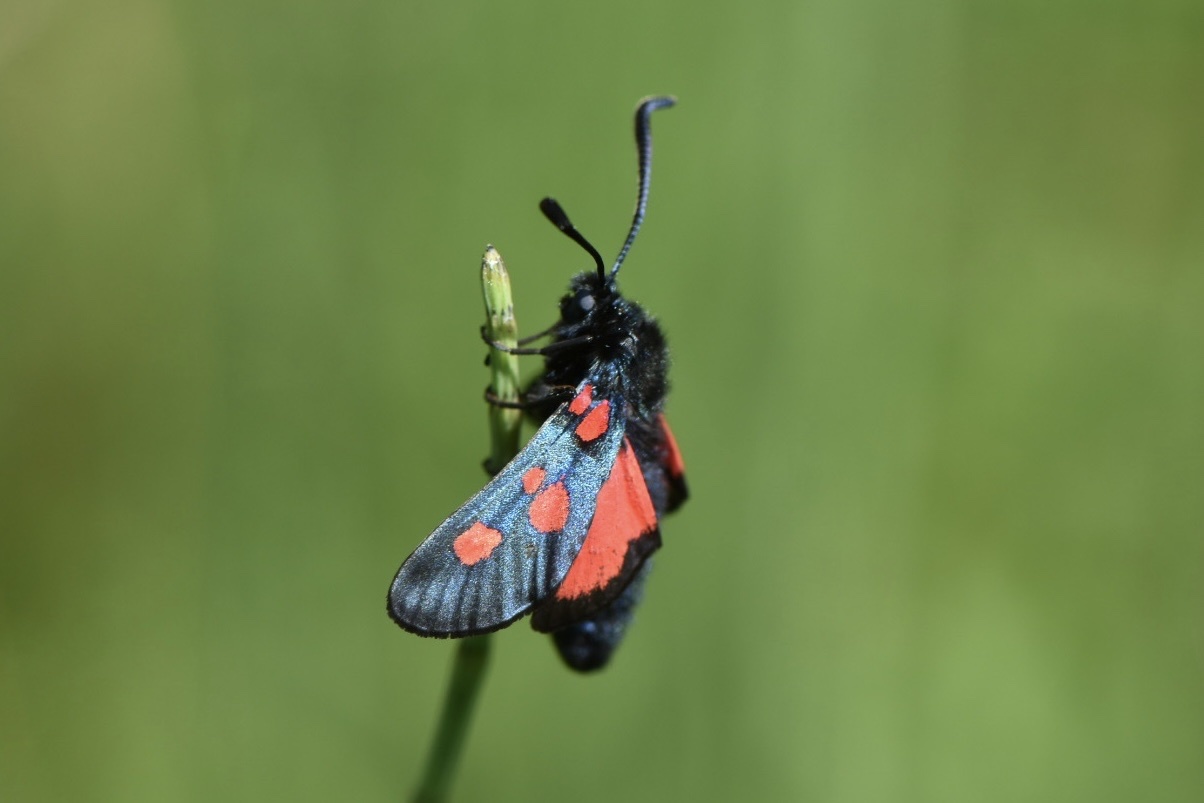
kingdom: Animalia
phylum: Arthropoda
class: Insecta
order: Lepidoptera
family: Zygaenidae
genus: Zygaena
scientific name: Zygaena trifolii
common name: Five-spot burnet
